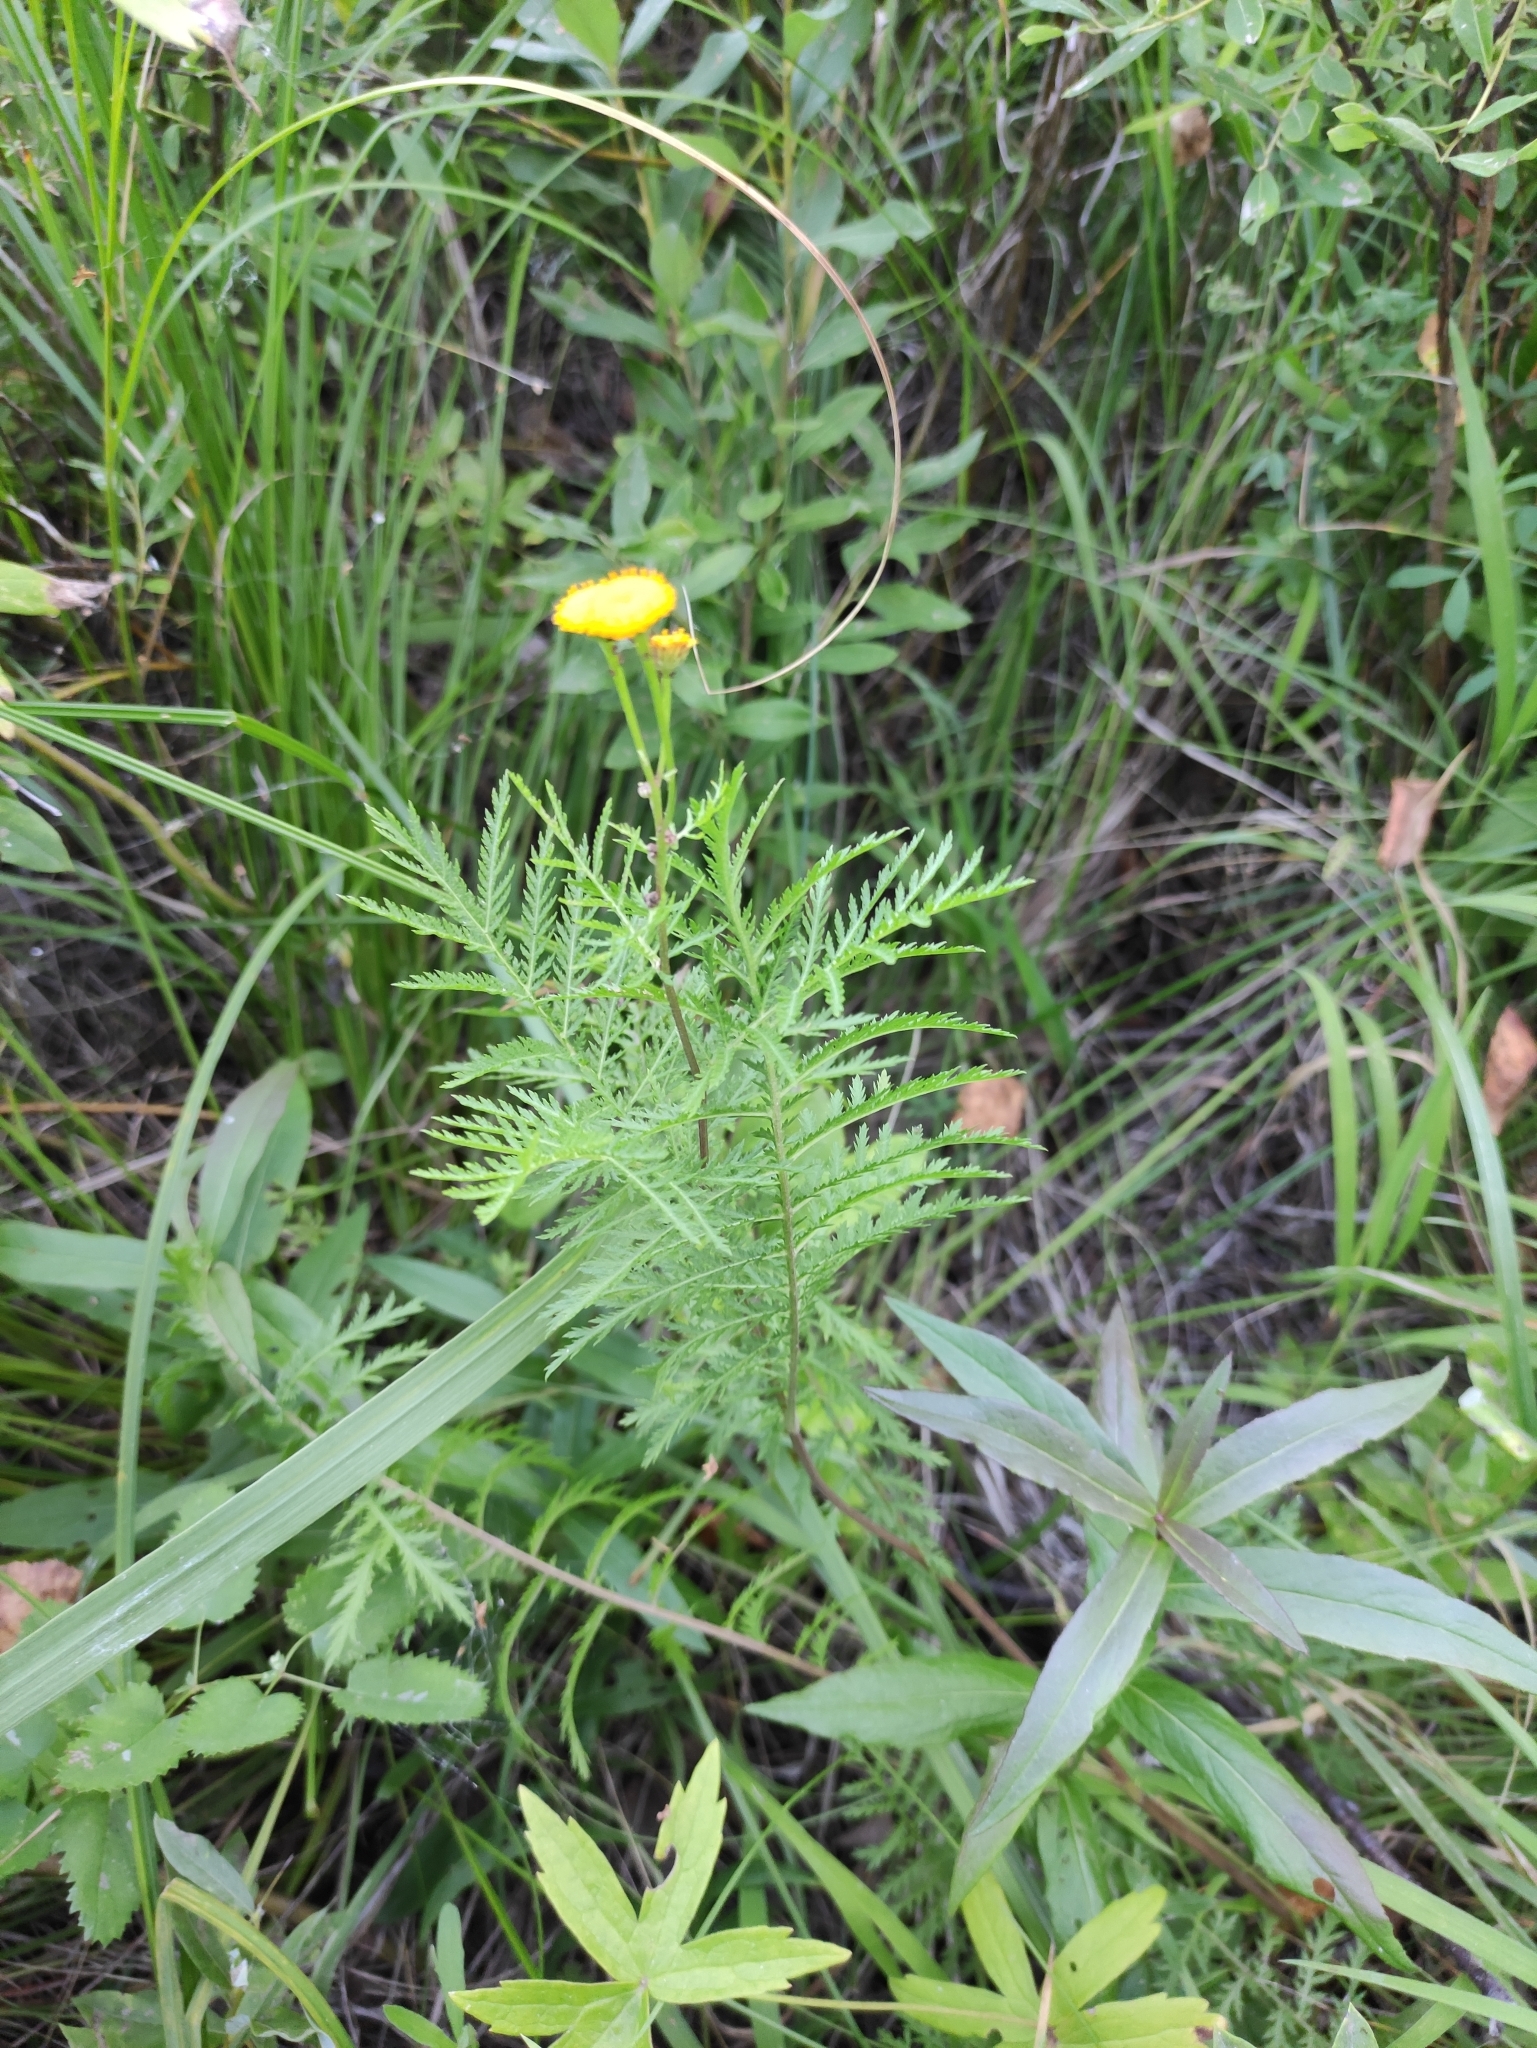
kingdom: Plantae
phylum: Tracheophyta
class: Magnoliopsida
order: Asterales
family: Asteraceae
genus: Tanacetum
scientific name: Tanacetum vulgare
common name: Common tansy
